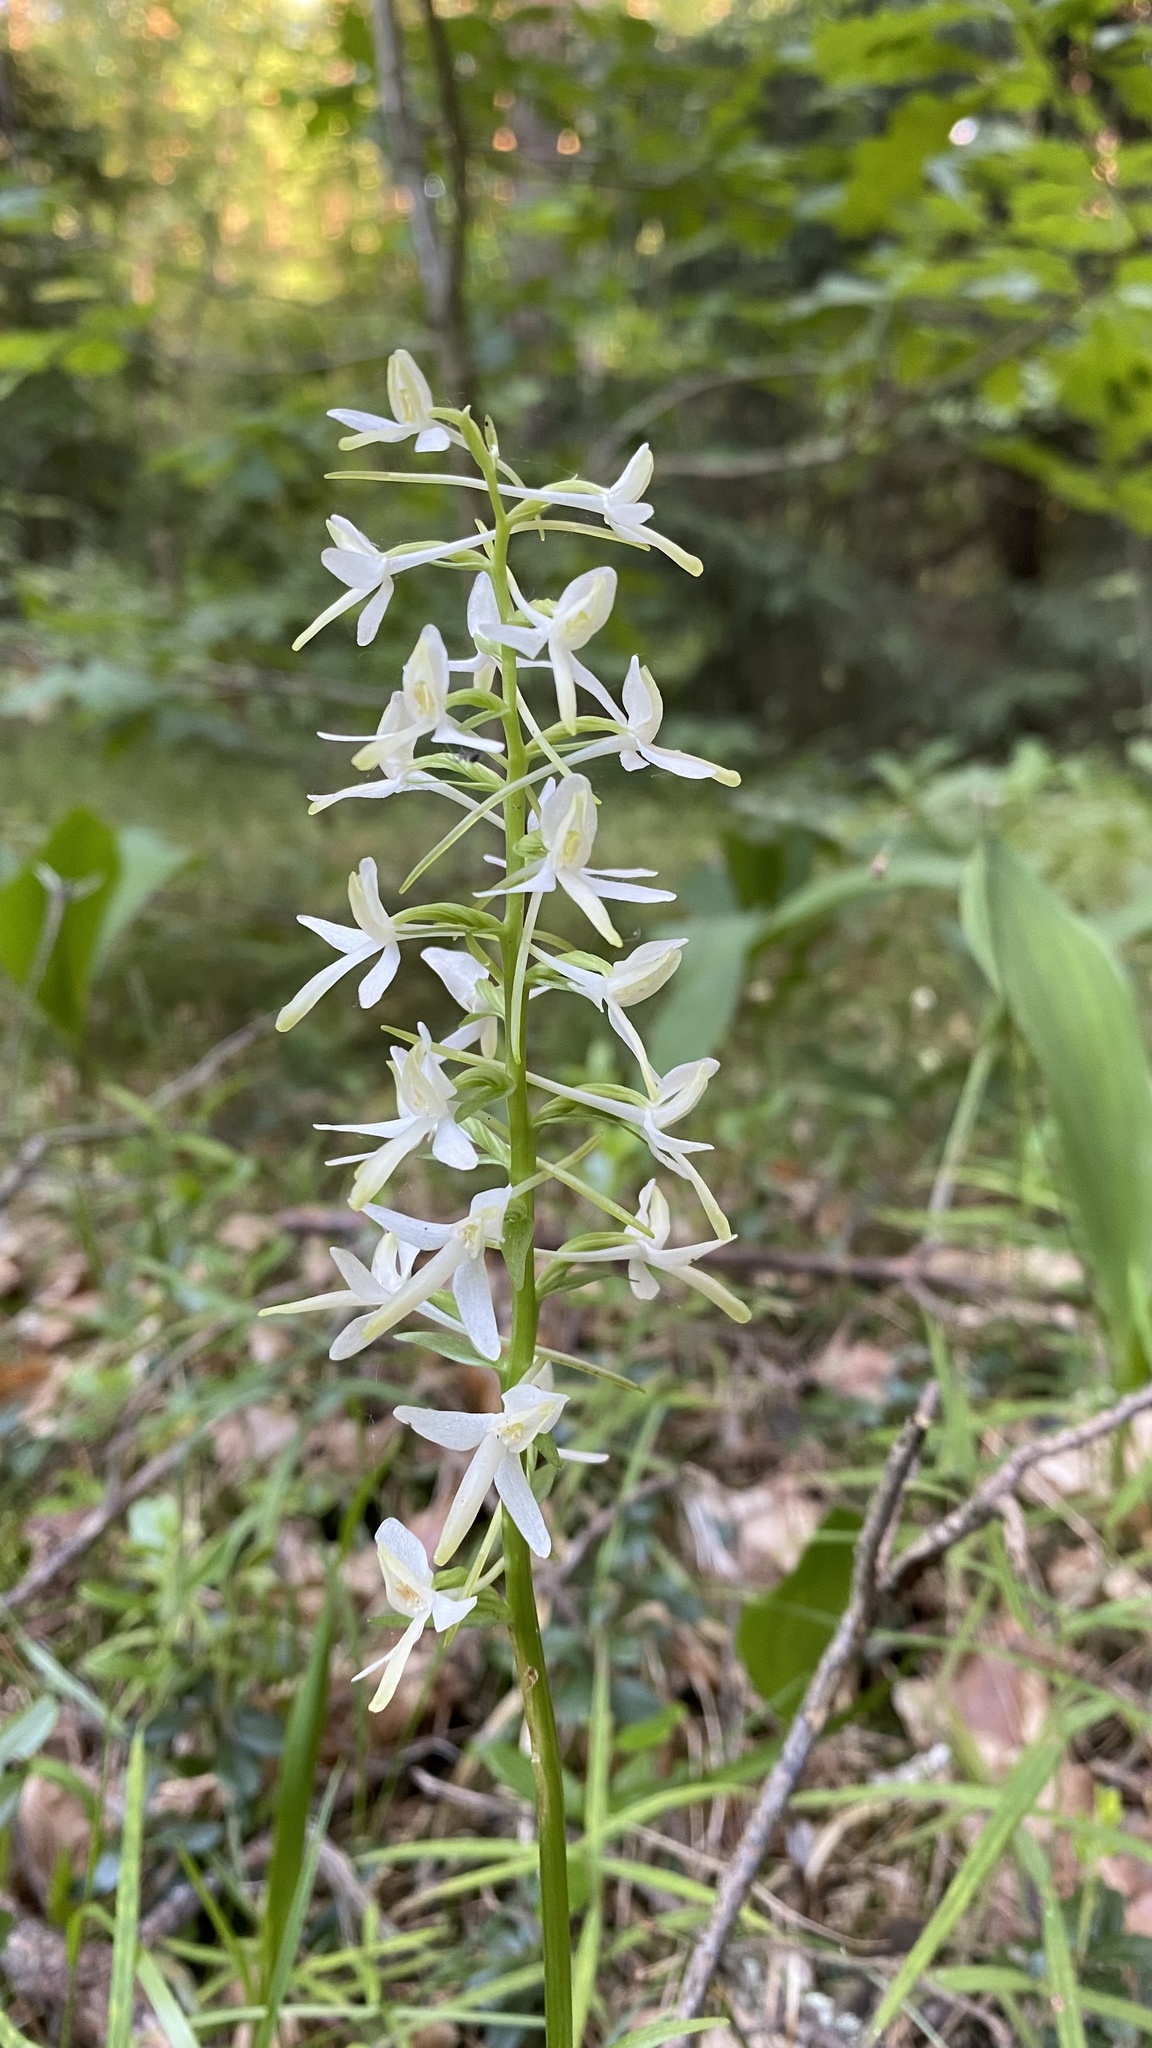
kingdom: Plantae
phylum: Tracheophyta
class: Liliopsida
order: Asparagales
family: Orchidaceae
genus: Platanthera
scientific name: Platanthera bifolia
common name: Lesser butterfly-orchid
